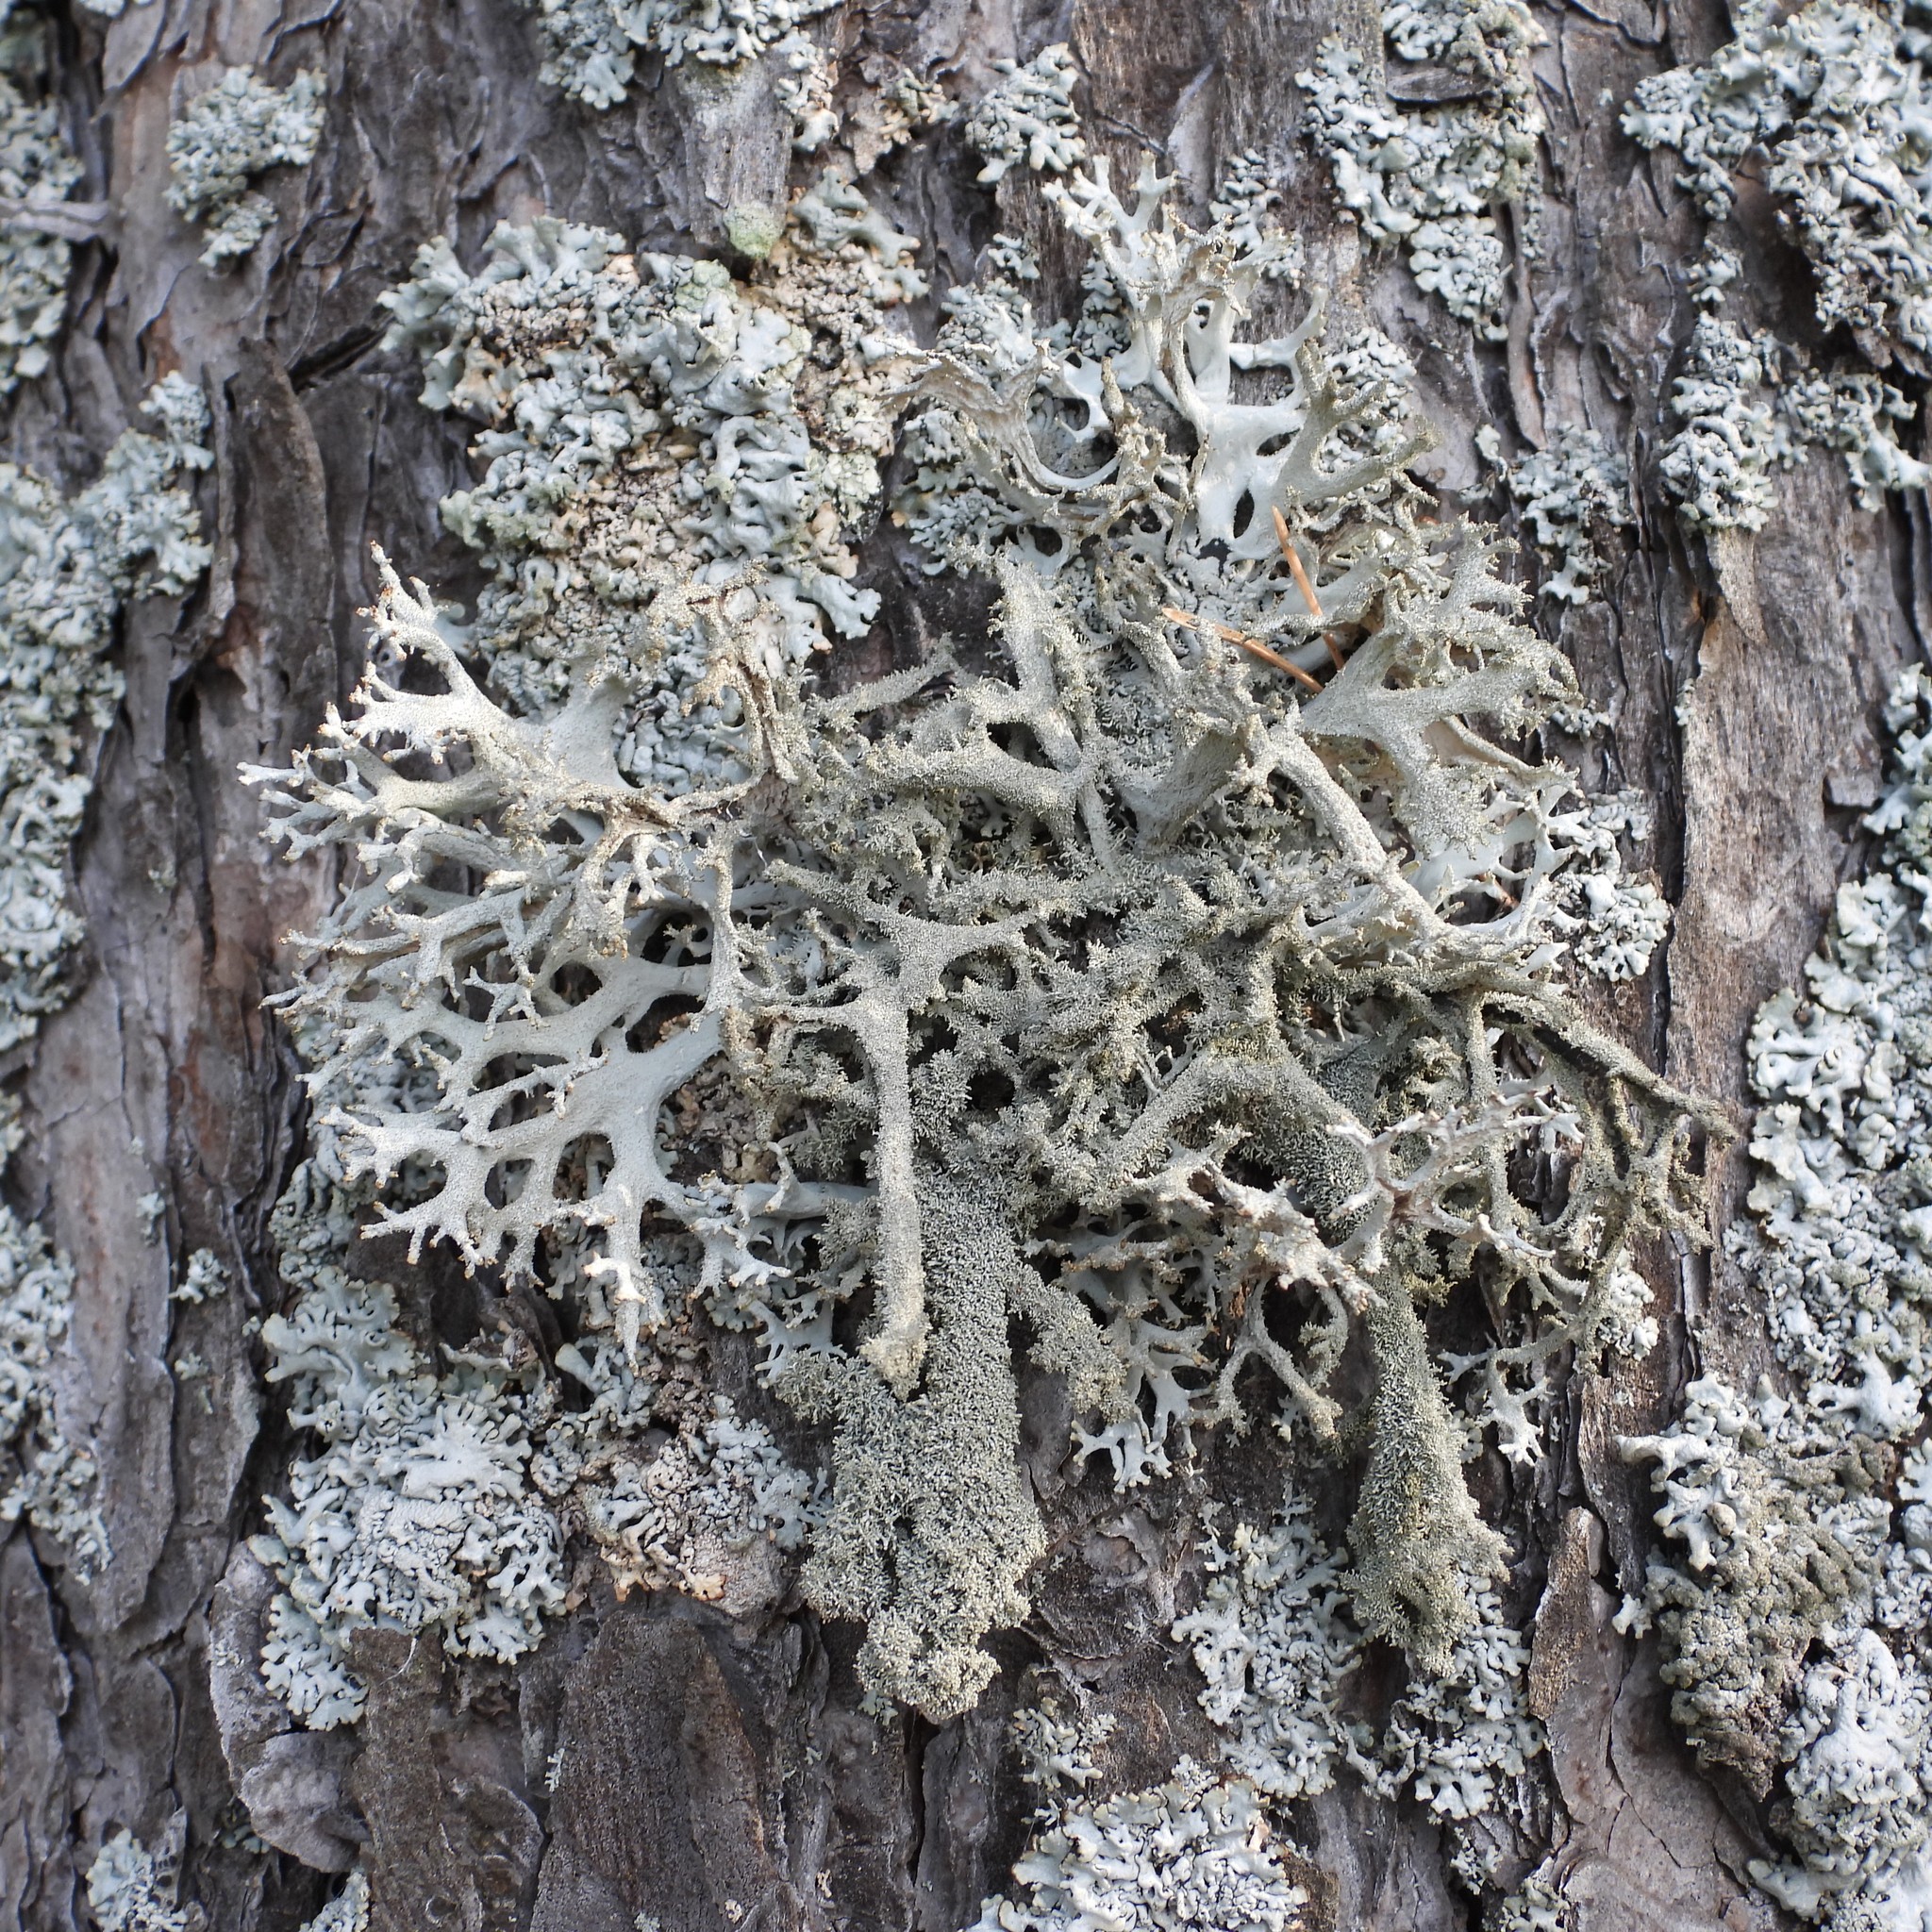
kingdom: Fungi
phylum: Ascomycota
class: Lecanoromycetes
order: Lecanorales
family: Parmeliaceae
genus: Pseudevernia
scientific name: Pseudevernia furfuracea
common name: Tree moss
